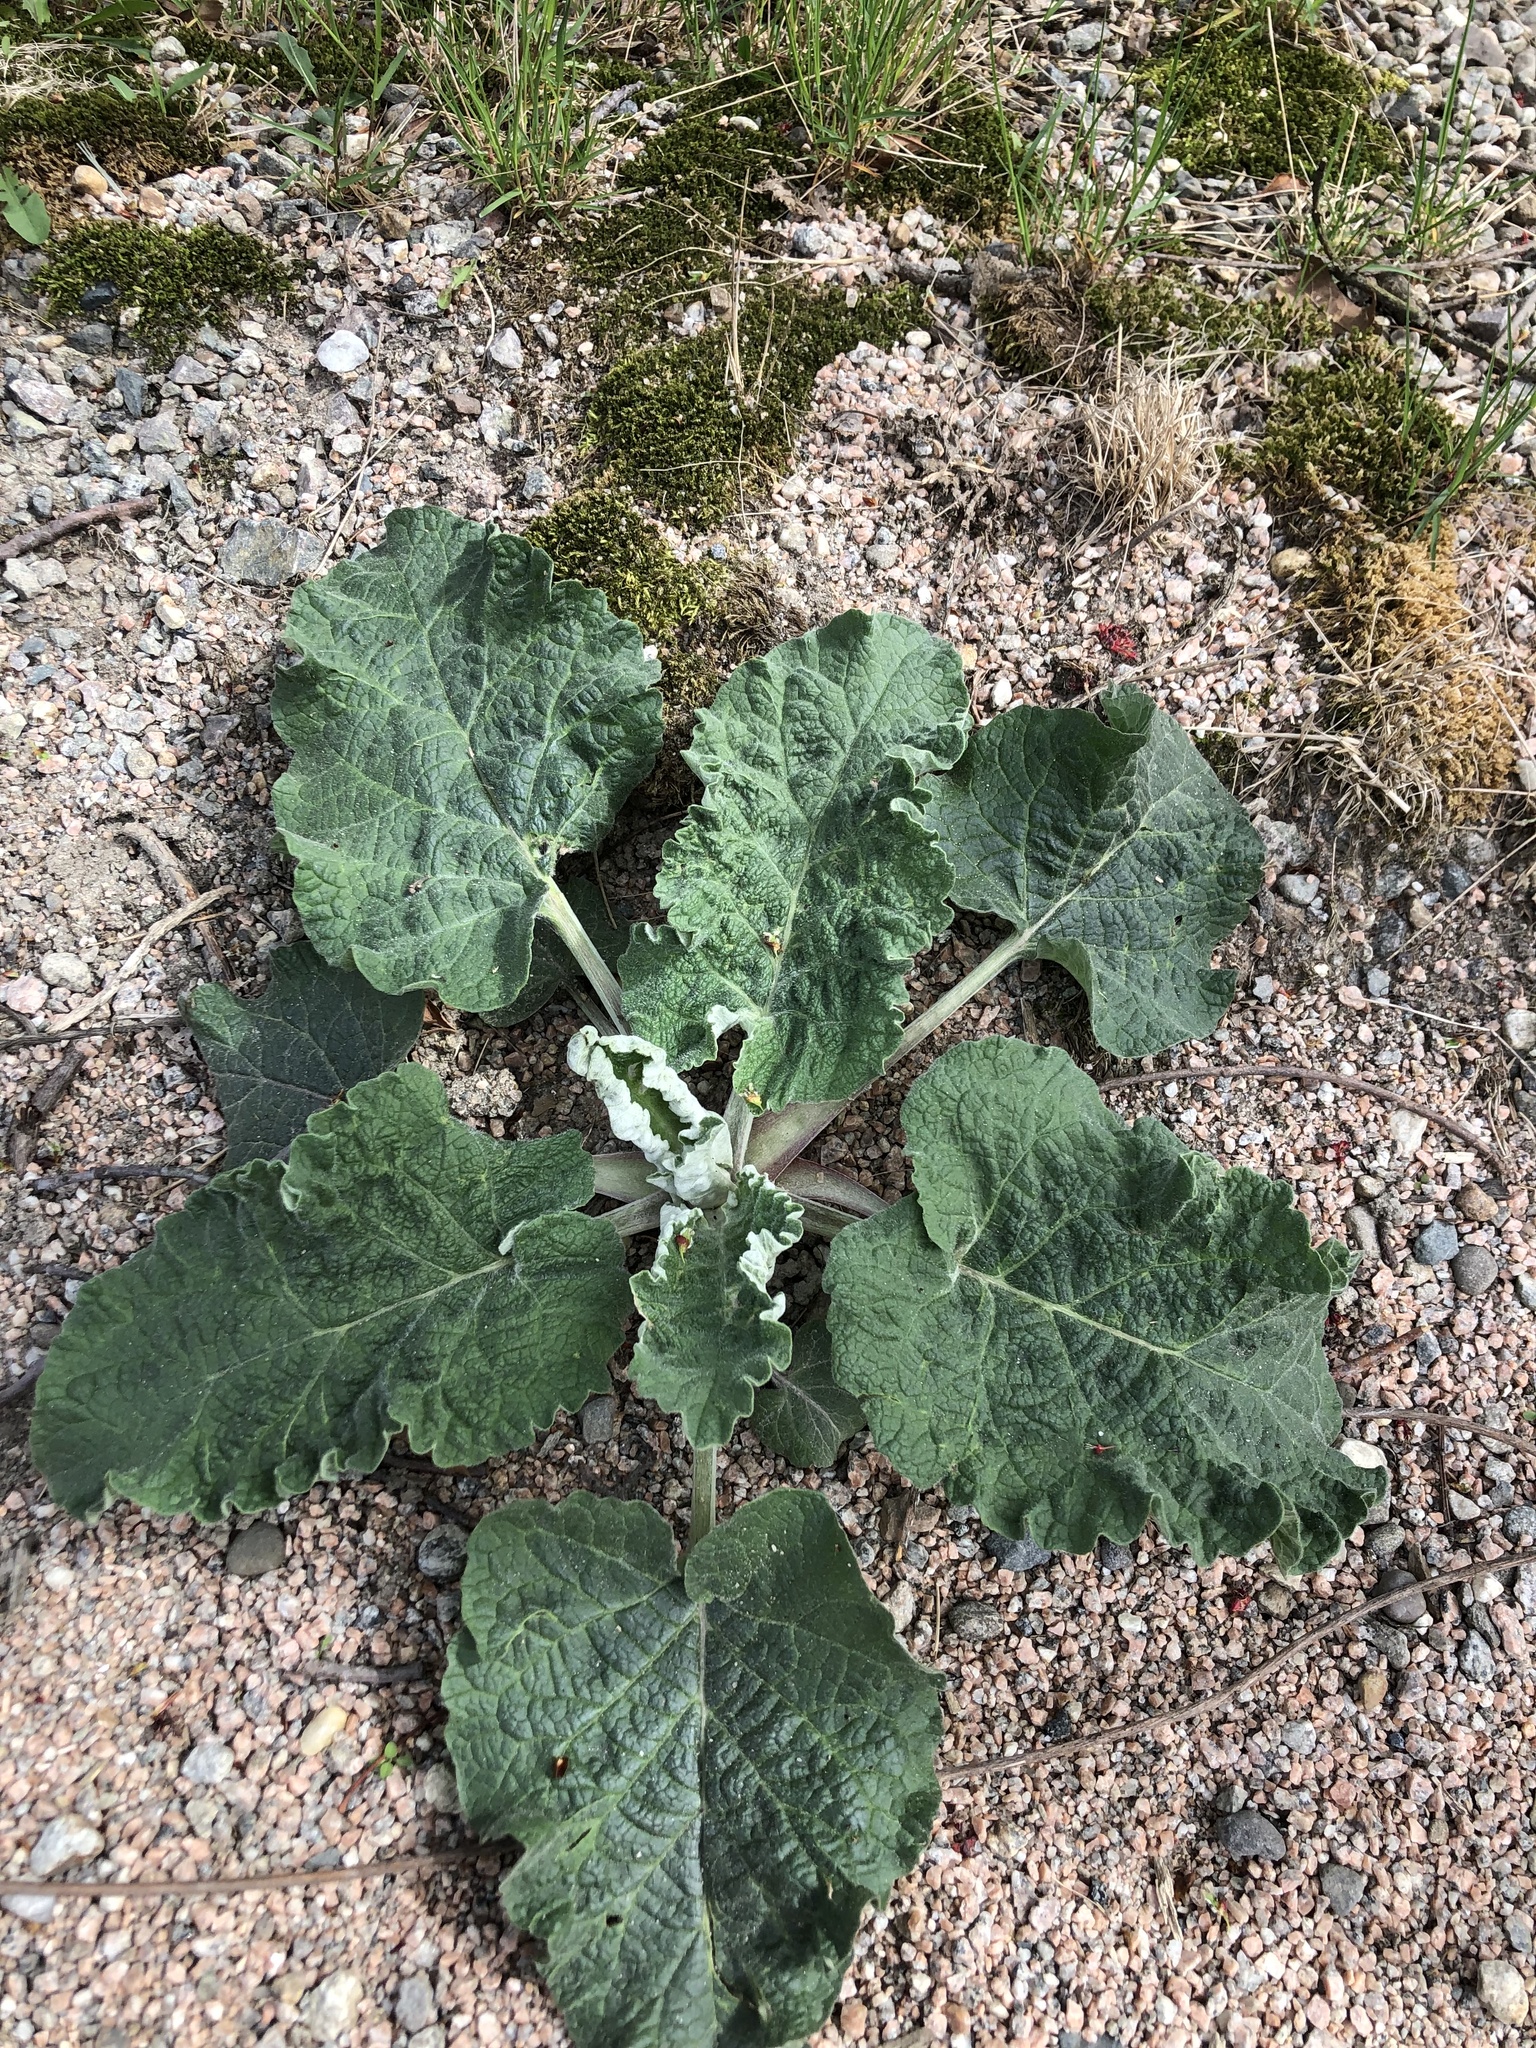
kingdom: Plantae
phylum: Tracheophyta
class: Magnoliopsida
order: Asterales
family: Asteraceae
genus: Arctium
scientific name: Arctium
